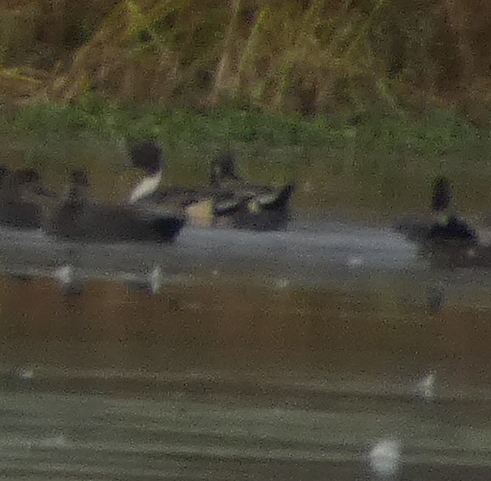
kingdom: Animalia
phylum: Chordata
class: Aves
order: Anseriformes
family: Anatidae
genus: Anas
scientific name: Anas acuta
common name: Northern pintail
